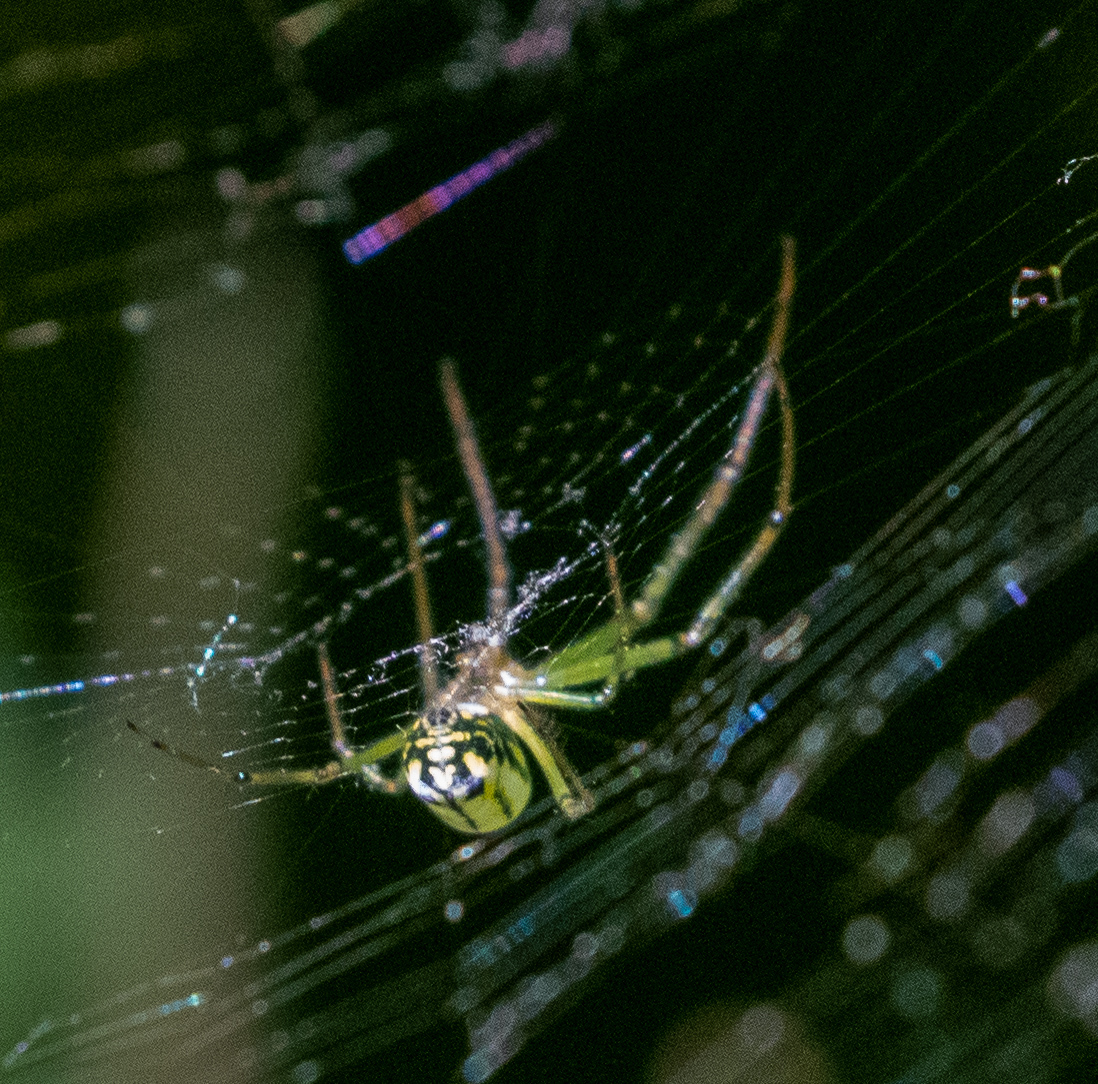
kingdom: Animalia
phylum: Arthropoda
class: Arachnida
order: Araneae
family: Tetragnathidae
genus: Leucauge
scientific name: Leucauge venusta
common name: Longjawed orb weavers
